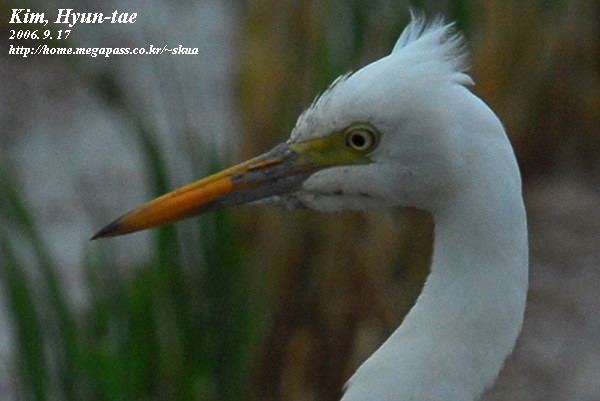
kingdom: Animalia
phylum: Chordata
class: Aves
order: Pelecaniformes
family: Ardeidae
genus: Egretta
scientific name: Egretta intermedia
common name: Intermediate egret
